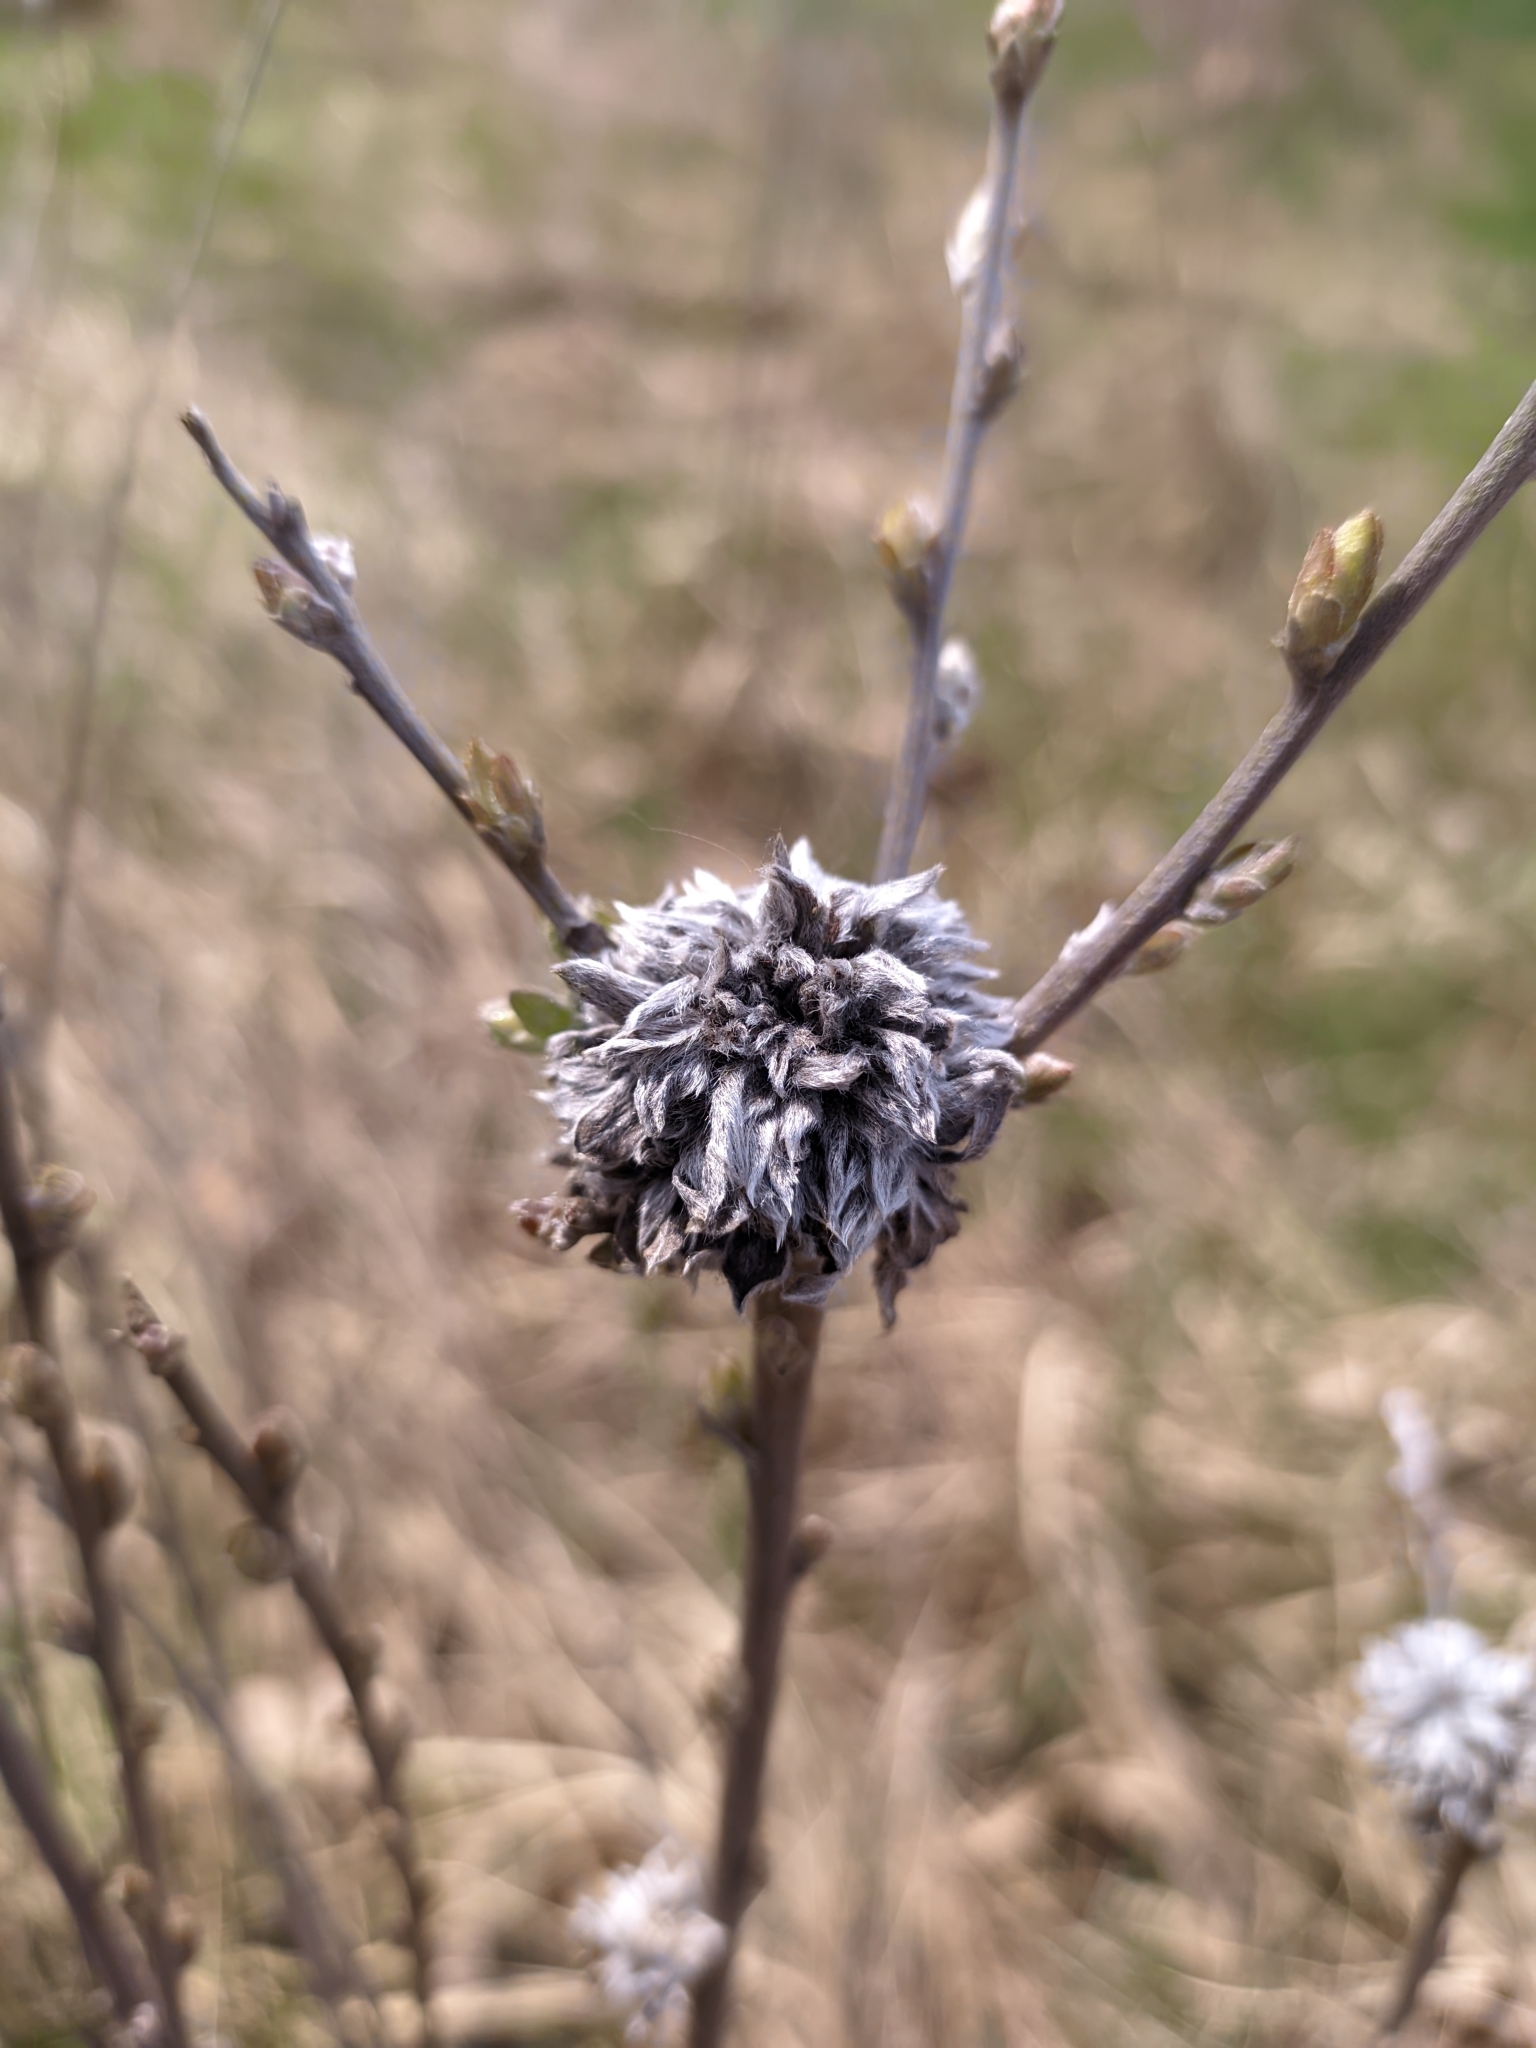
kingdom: Animalia
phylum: Arthropoda
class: Insecta
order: Diptera
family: Cecidomyiidae
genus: Rabdophaga
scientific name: Rabdophaga rosaria
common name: Willow rose gall midge
